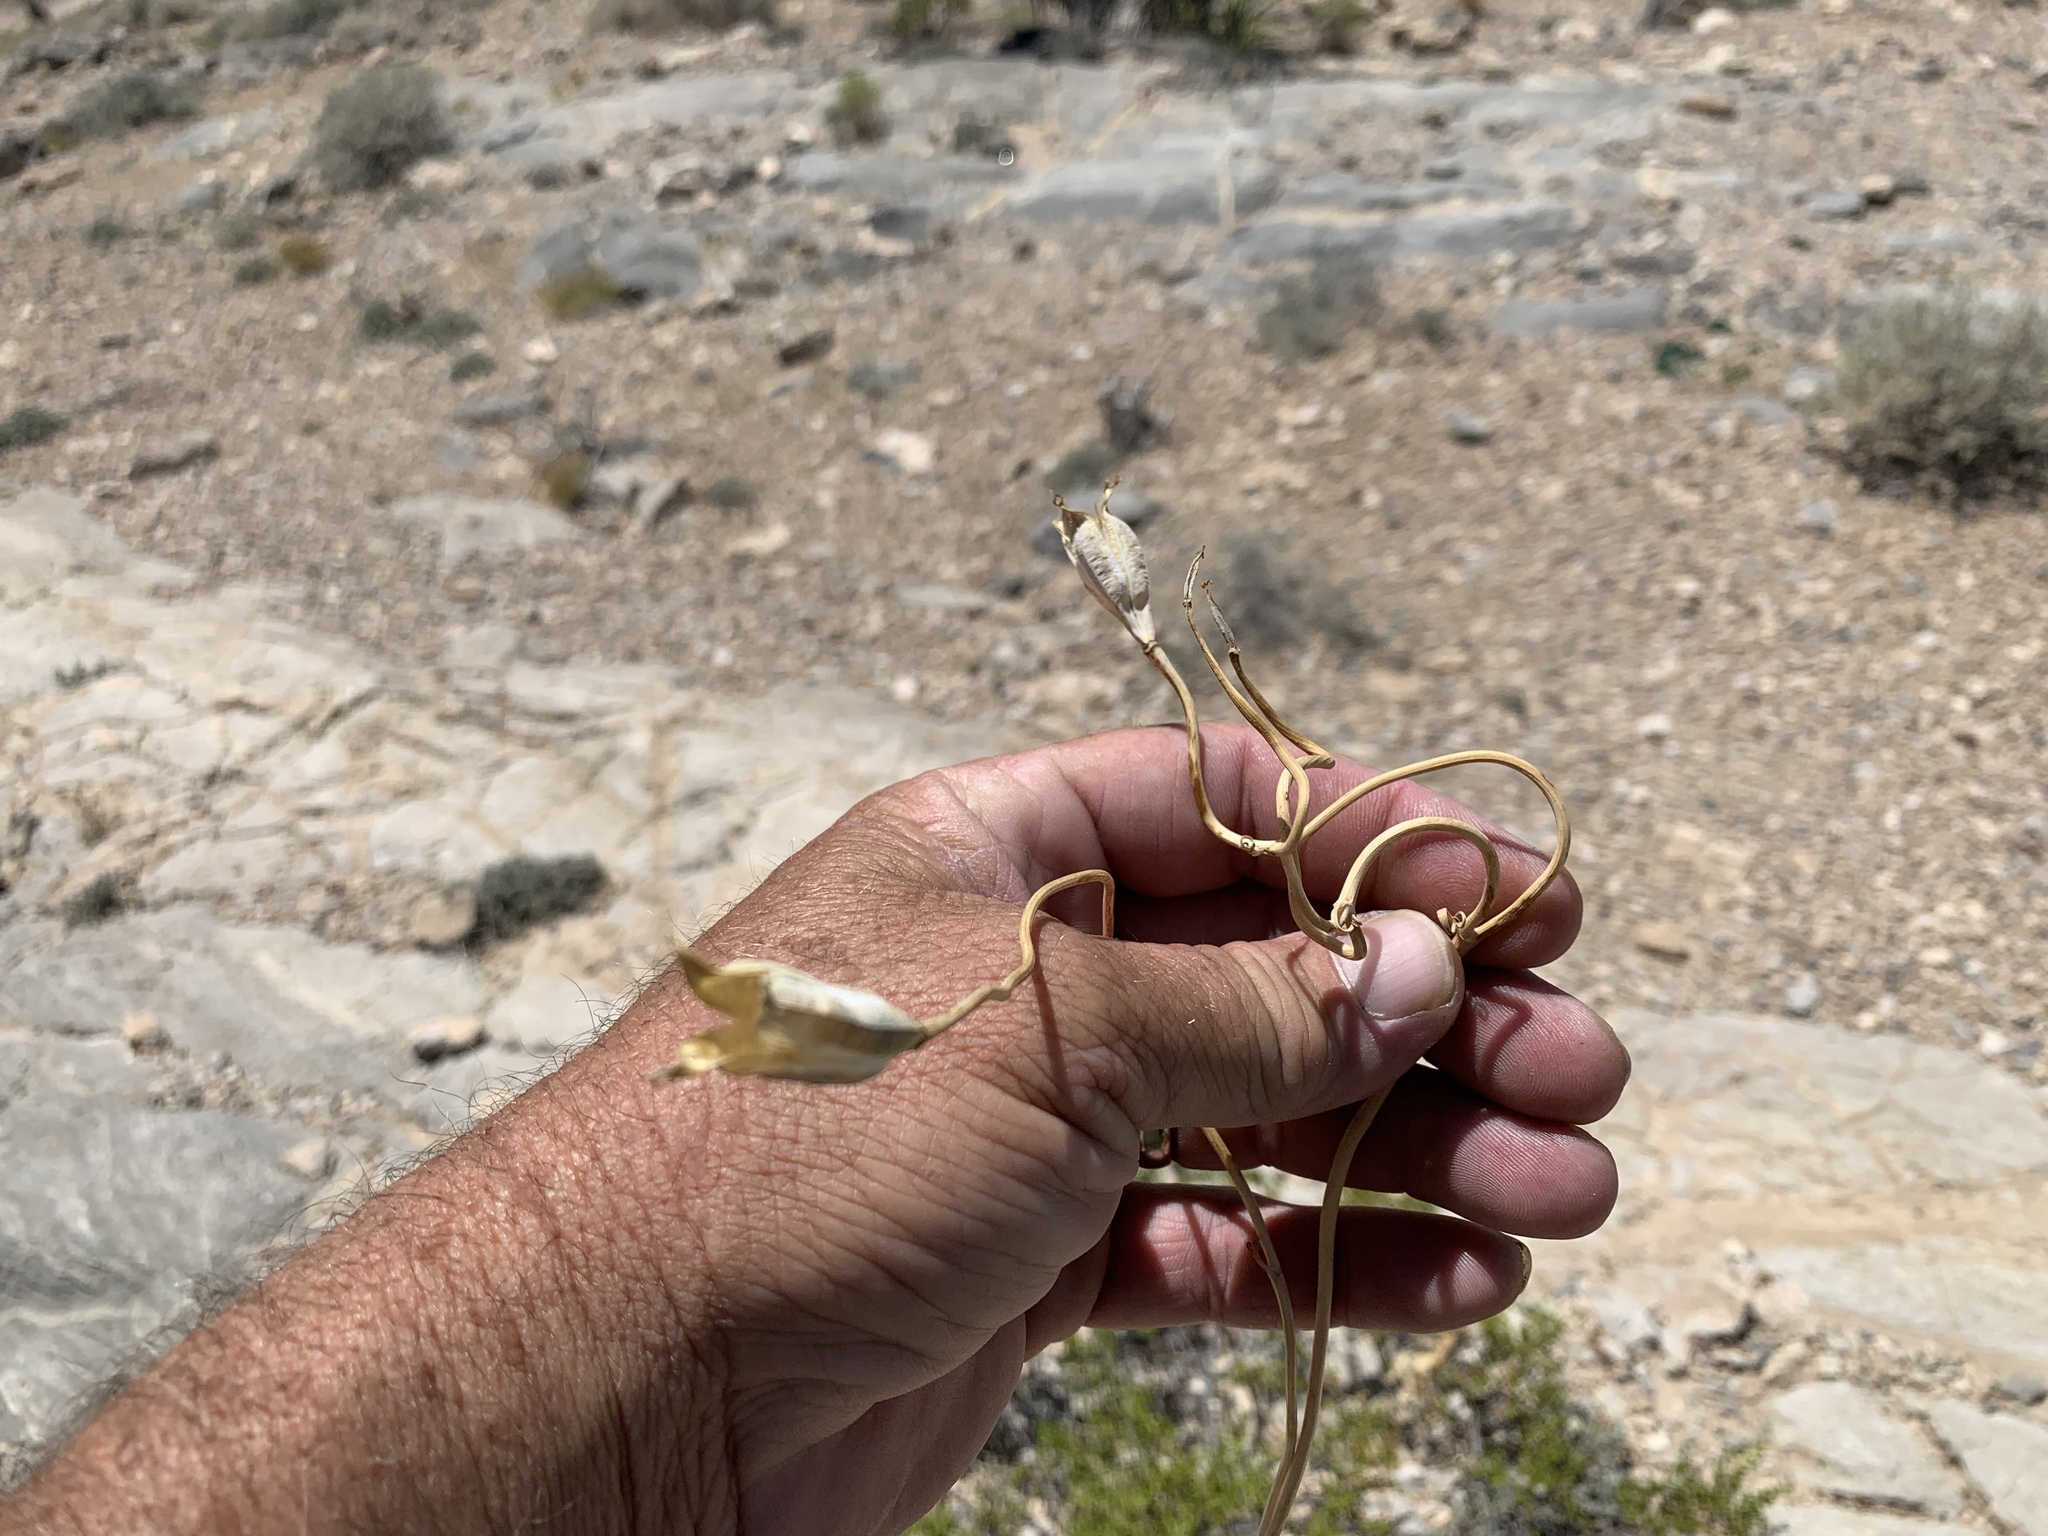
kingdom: Plantae
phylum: Tracheophyta
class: Liliopsida
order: Liliales
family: Liliaceae
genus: Calochortus
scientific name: Calochortus flexuosus
